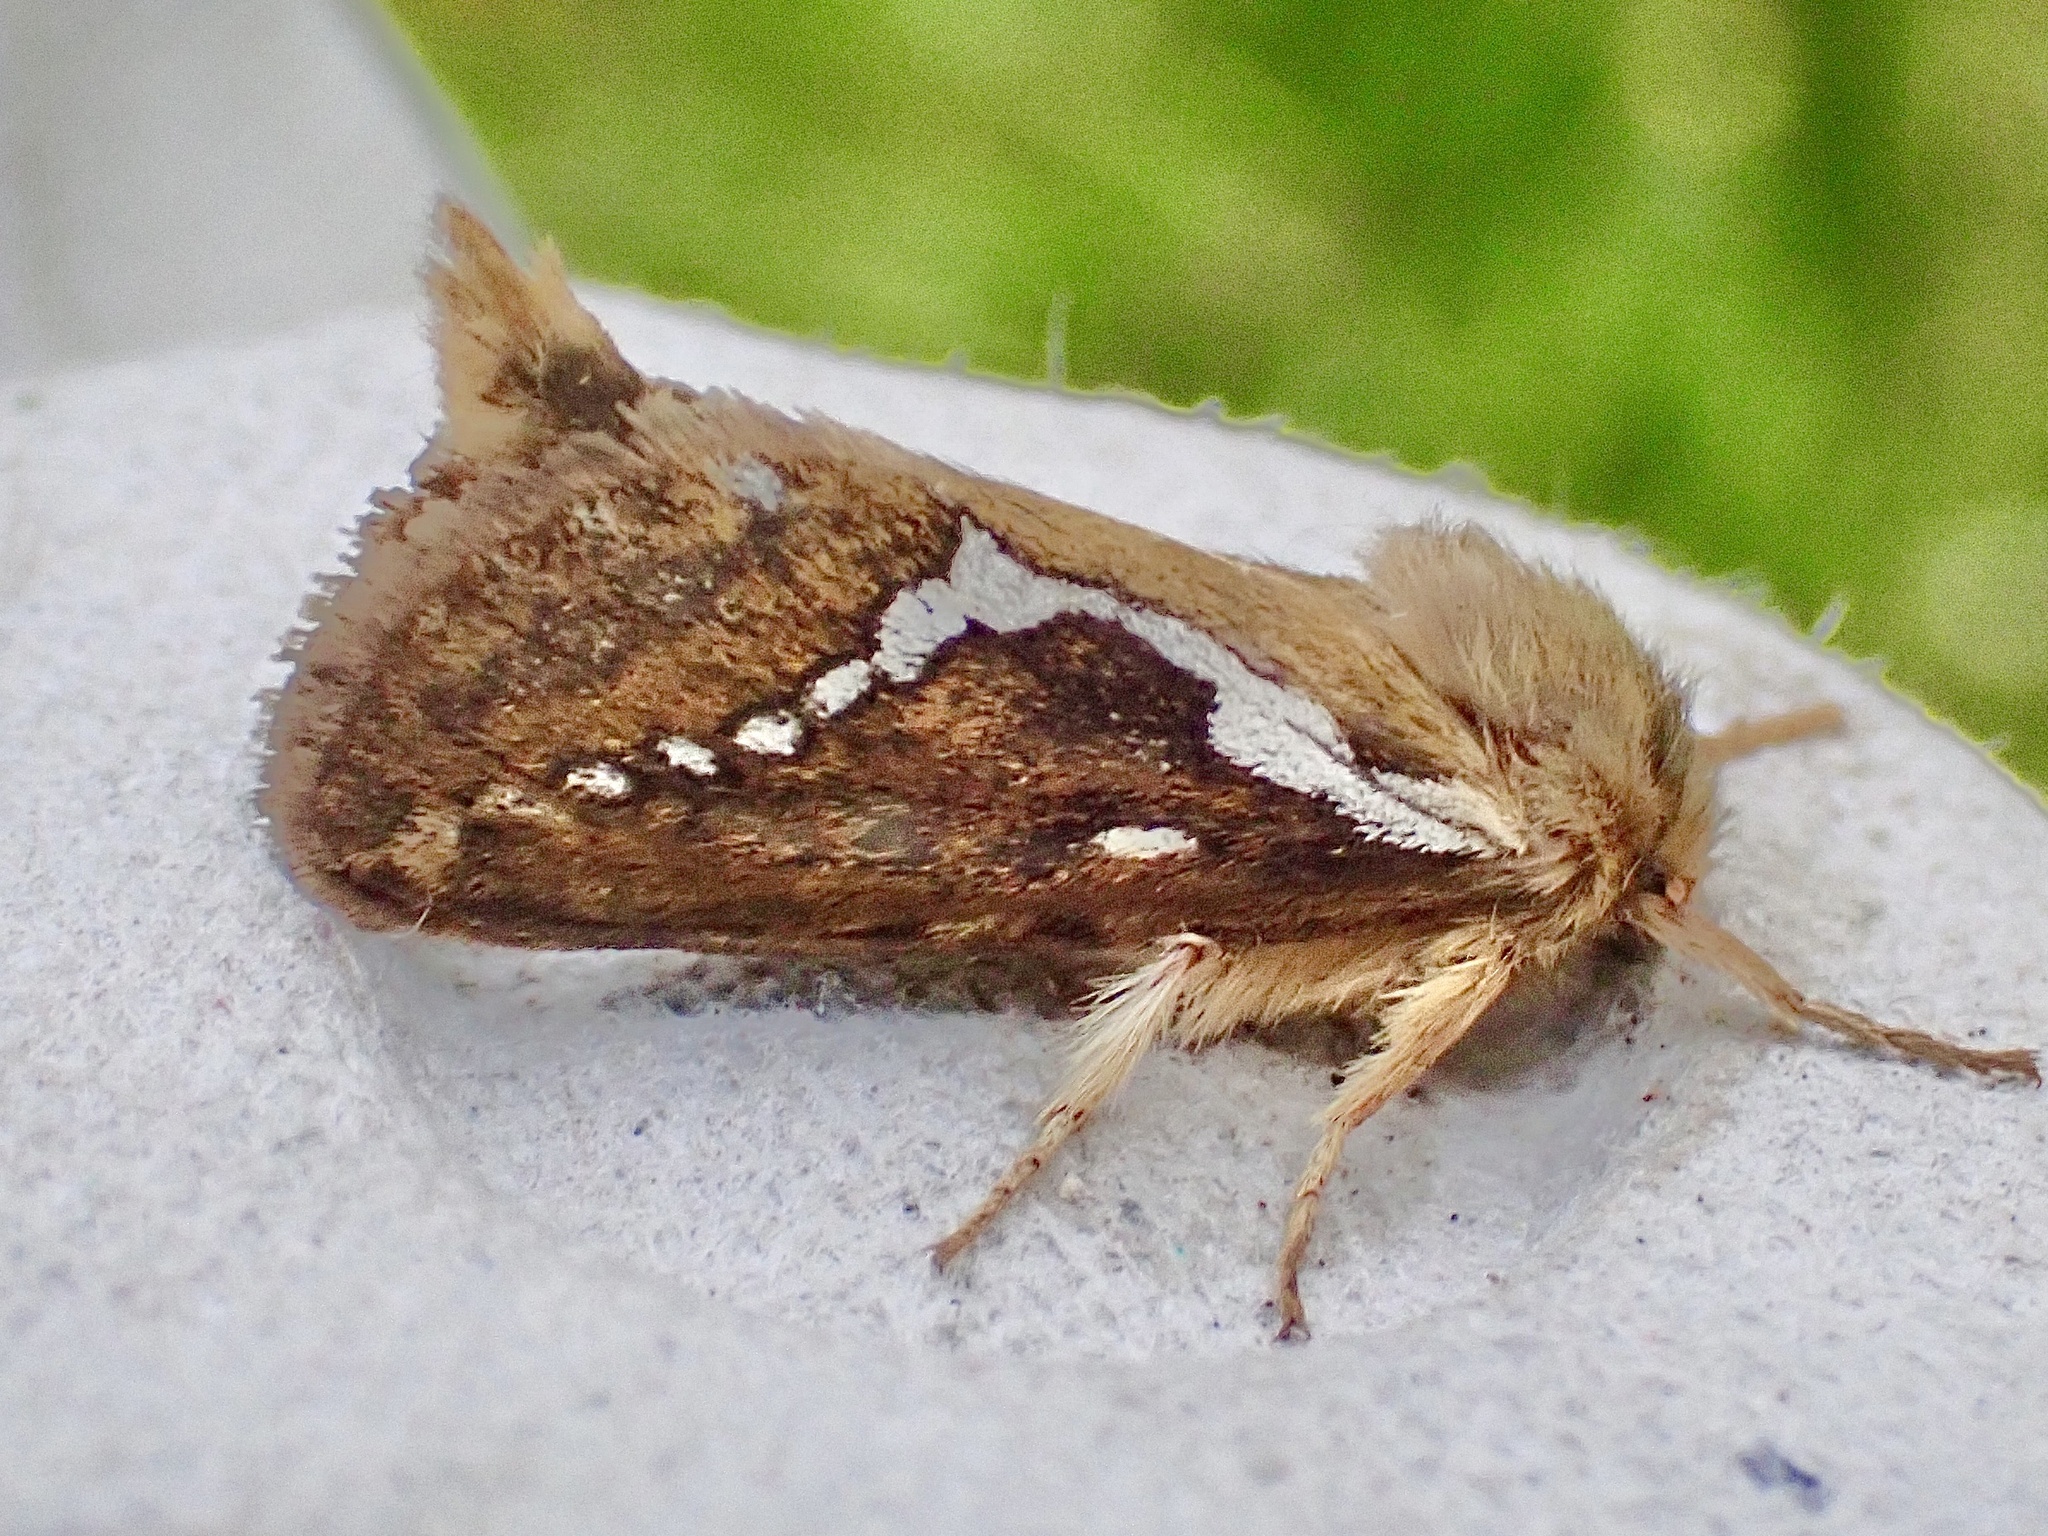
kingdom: Animalia
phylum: Arthropoda
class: Insecta
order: Lepidoptera
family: Hepialidae
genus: Korscheltellus
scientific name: Korscheltellus lupulina
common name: Common swift
